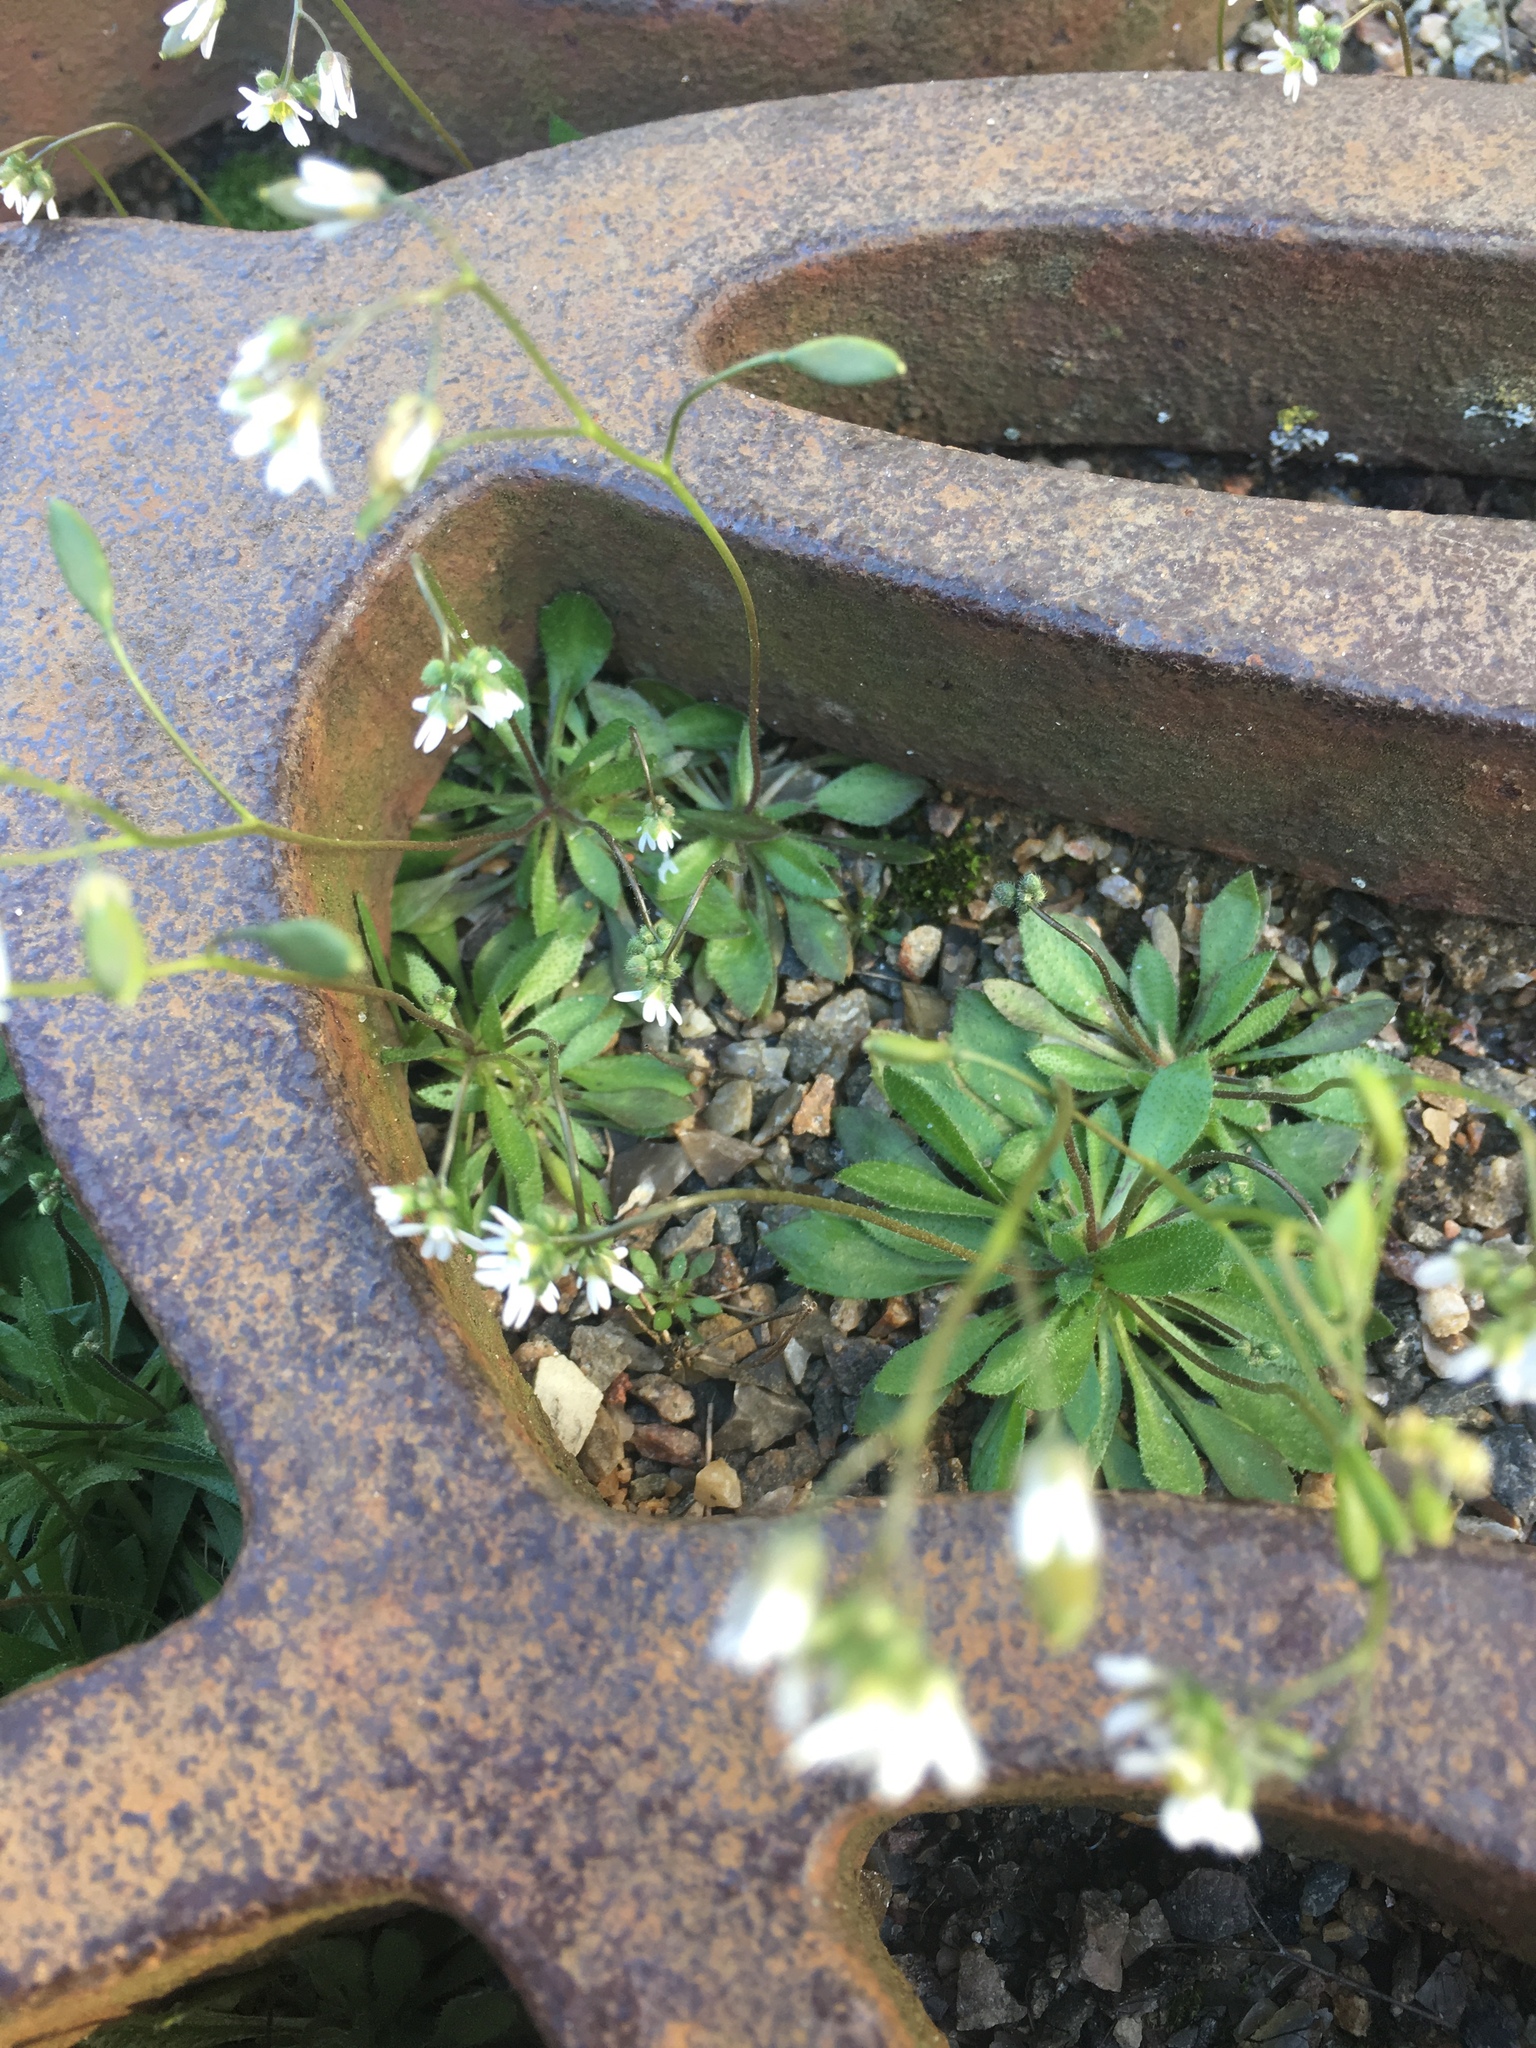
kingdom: Plantae
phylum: Tracheophyta
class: Magnoliopsida
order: Brassicales
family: Brassicaceae
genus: Draba
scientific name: Draba verna
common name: Spring draba
